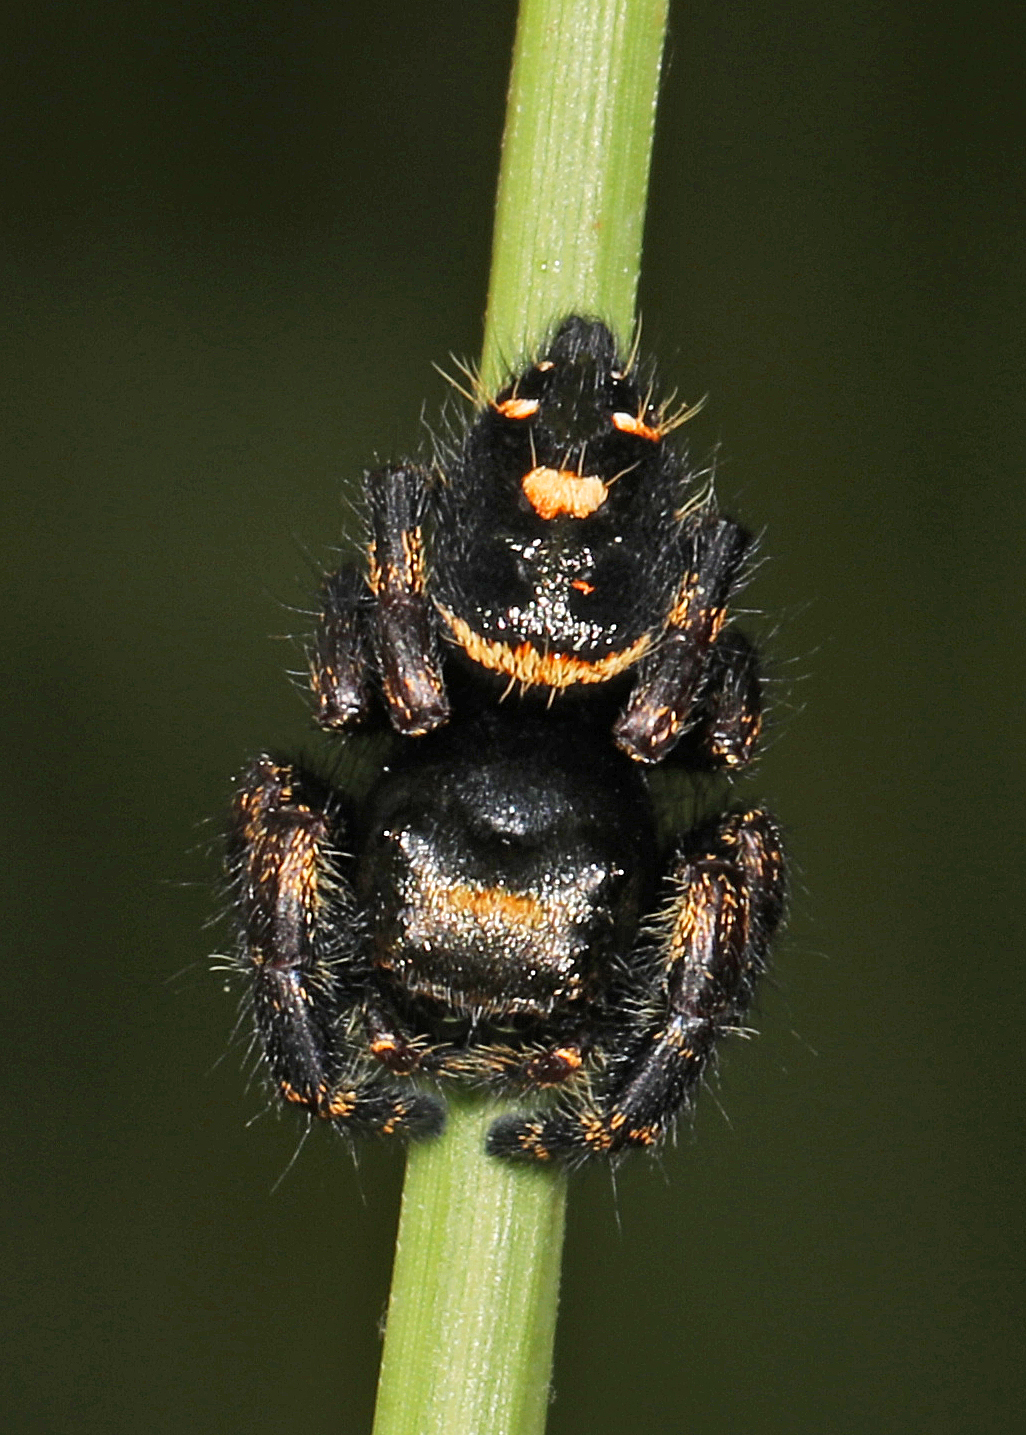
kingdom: Animalia
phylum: Arthropoda
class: Arachnida
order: Araneae
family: Salticidae
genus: Phidippus
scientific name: Phidippus audax
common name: Bold jumper
